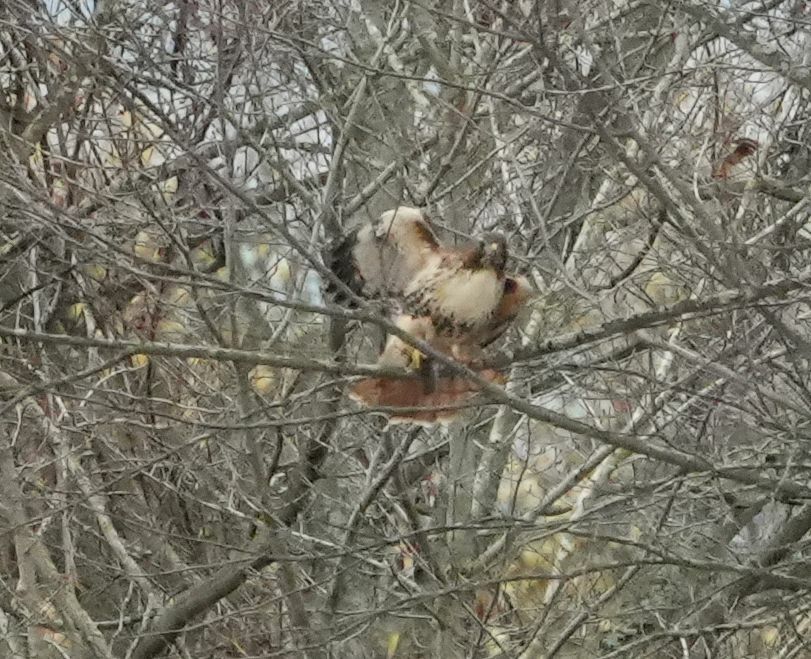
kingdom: Animalia
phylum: Chordata
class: Aves
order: Accipitriformes
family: Accipitridae
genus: Buteo
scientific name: Buteo jamaicensis
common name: Red-tailed hawk
